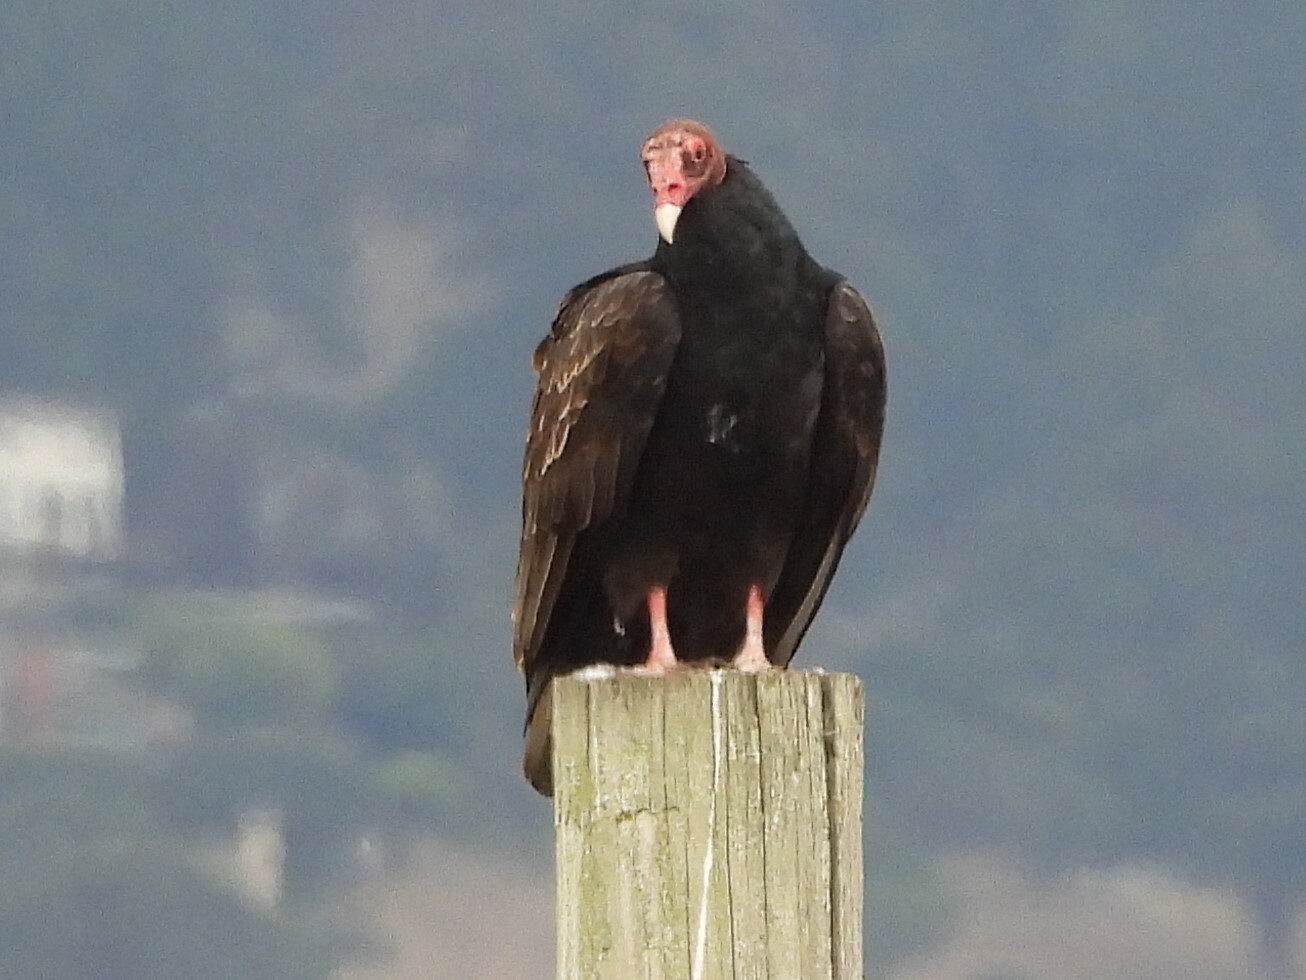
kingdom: Animalia
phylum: Chordata
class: Aves
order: Accipitriformes
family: Cathartidae
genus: Cathartes
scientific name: Cathartes aura
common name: Turkey vulture
